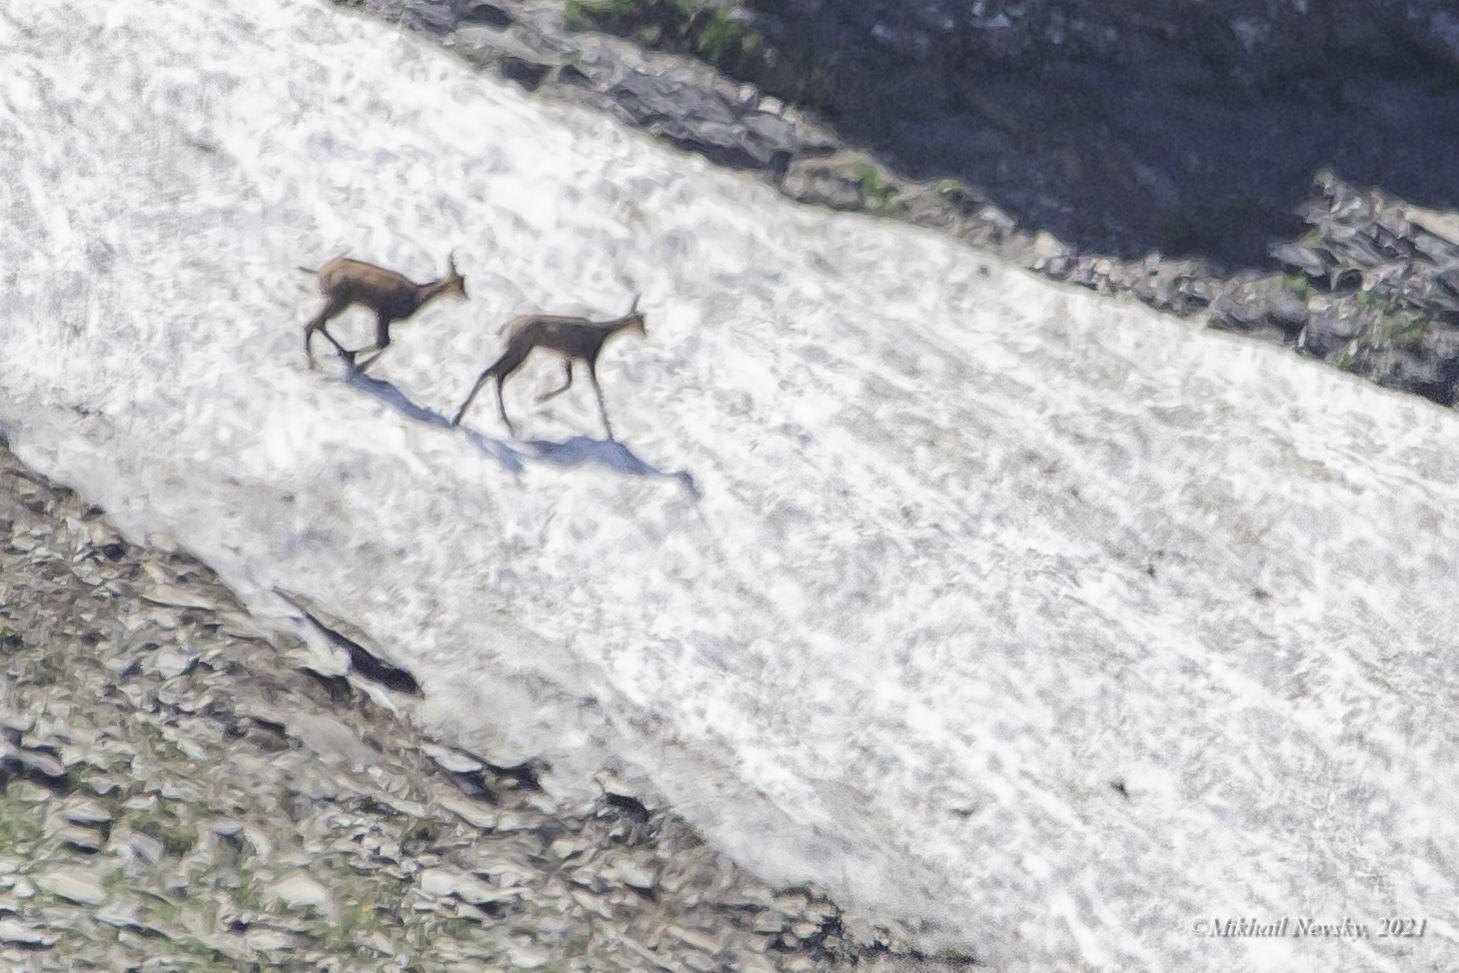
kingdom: Animalia
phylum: Chordata
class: Mammalia
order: Artiodactyla
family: Bovidae
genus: Rupicapra
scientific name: Rupicapra rupicapra
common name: Chamois
